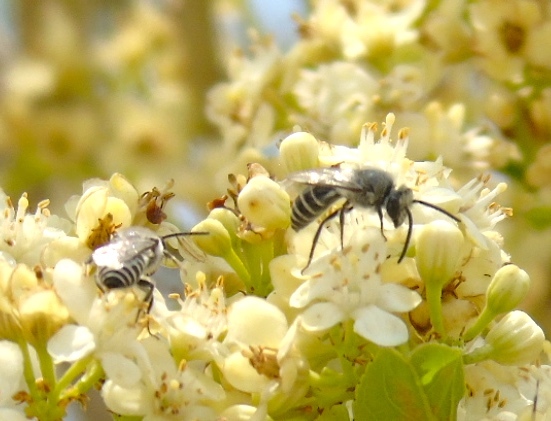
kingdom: Animalia
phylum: Arthropoda
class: Insecta
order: Hymenoptera
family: Colletidae
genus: Colletes
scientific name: Colletes
